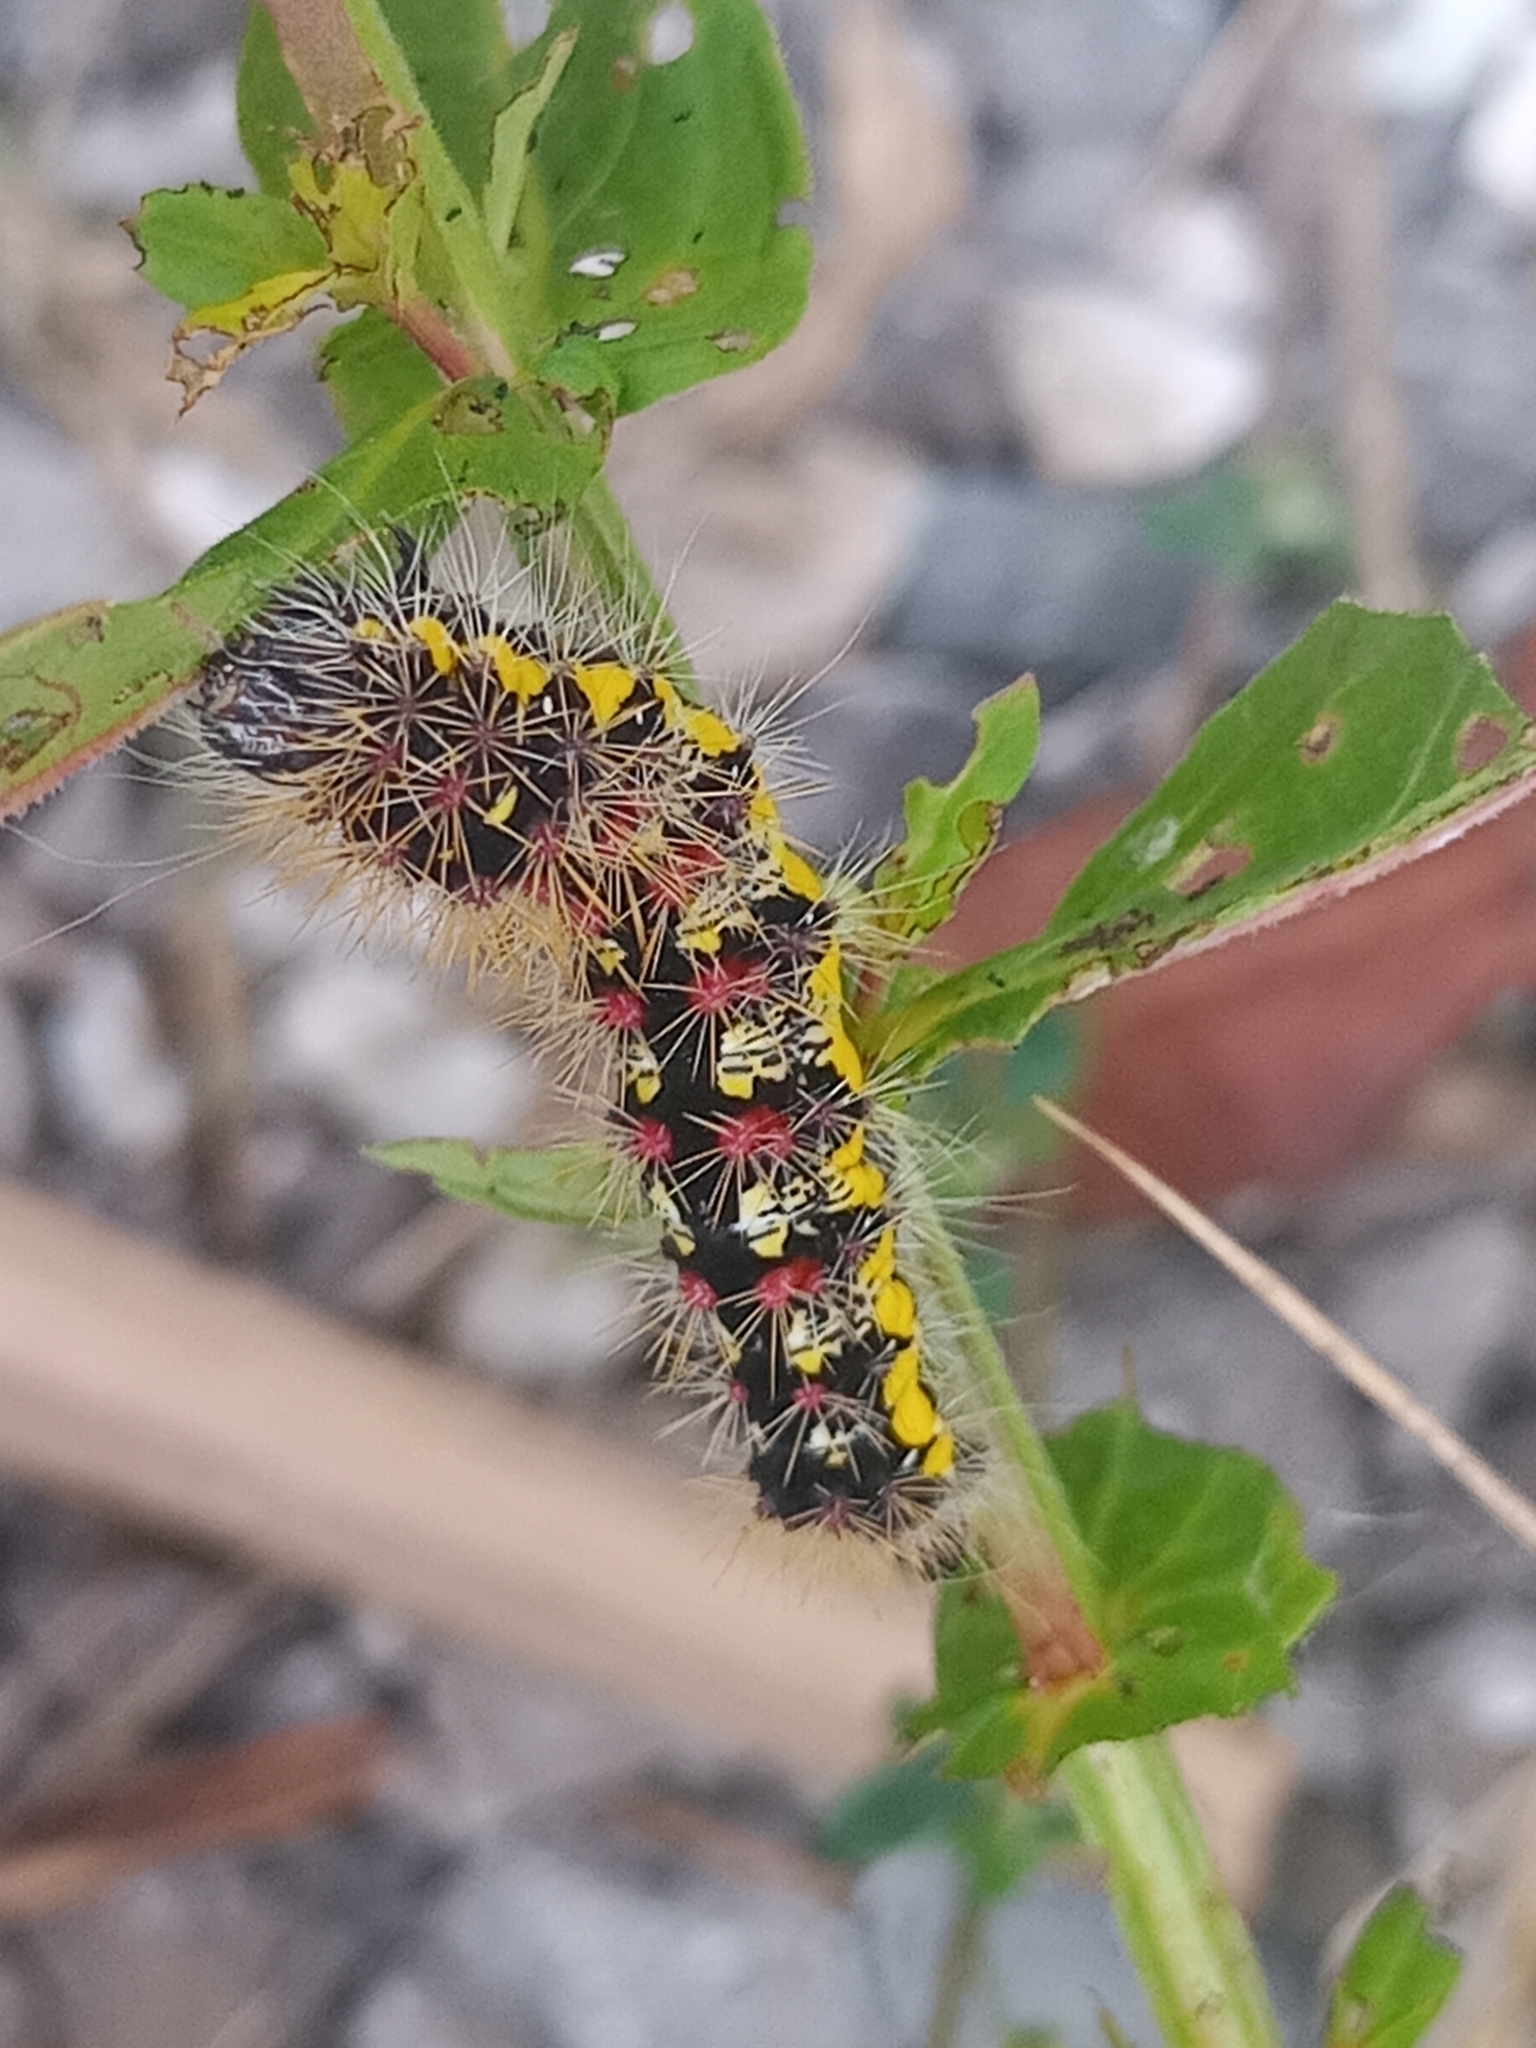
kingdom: Animalia
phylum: Arthropoda
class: Insecta
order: Lepidoptera
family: Noctuidae
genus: Acronicta
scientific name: Acronicta oblinita
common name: Smeared dagger
